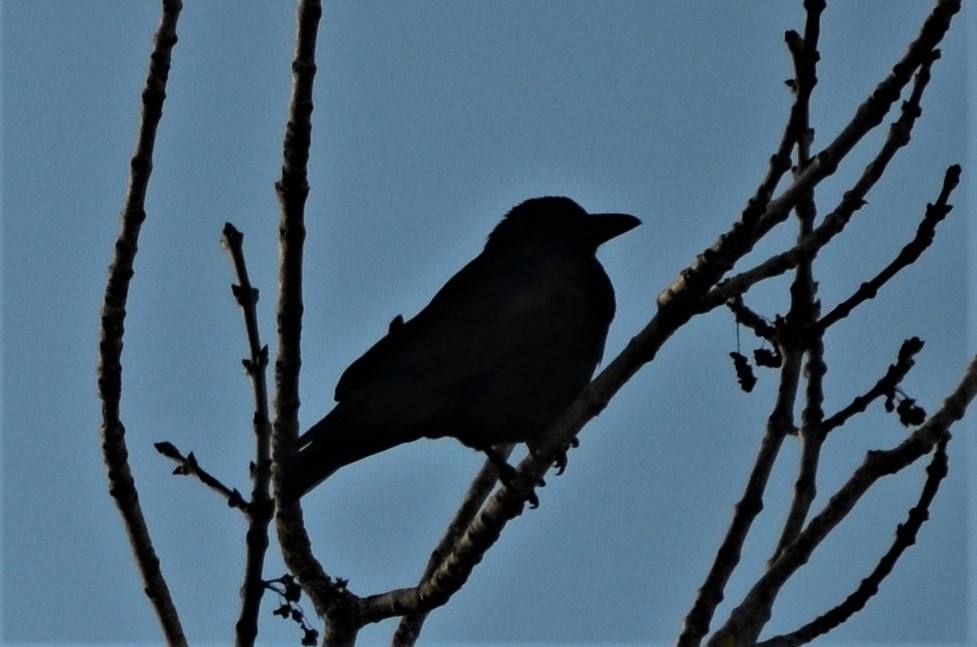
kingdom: Animalia
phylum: Chordata
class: Aves
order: Passeriformes
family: Corvidae
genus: Corvus
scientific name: Corvus corone
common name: Carrion crow
